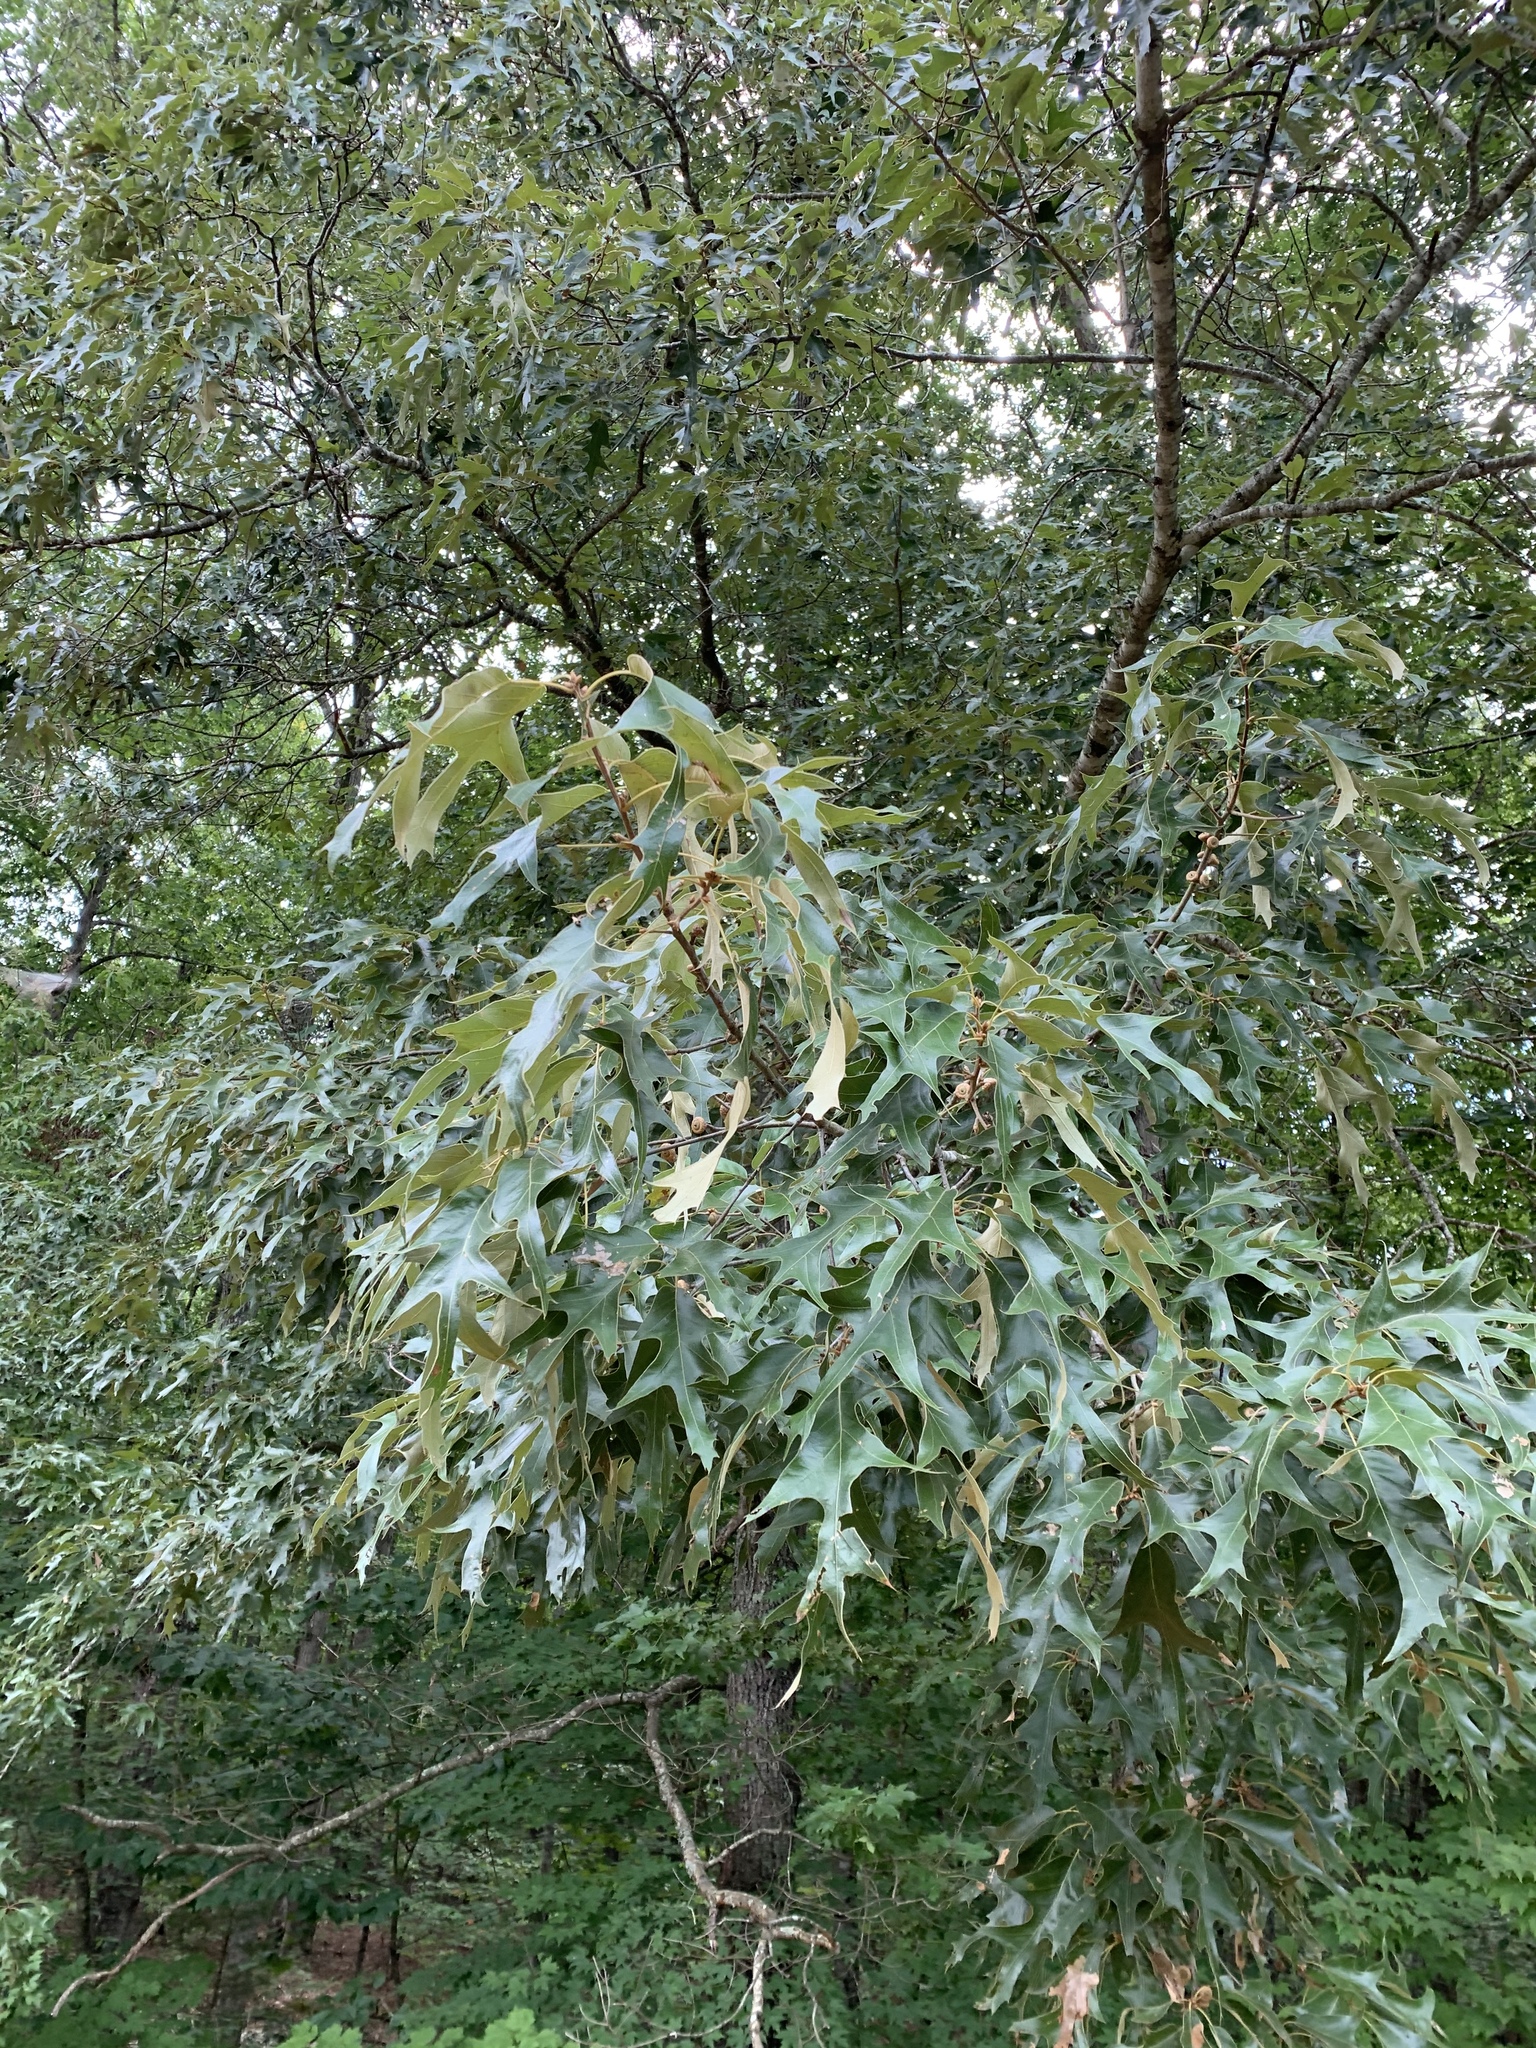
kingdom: Plantae
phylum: Tracheophyta
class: Magnoliopsida
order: Fagales
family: Fagaceae
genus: Quercus
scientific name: Quercus falcata
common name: Southern red oak
